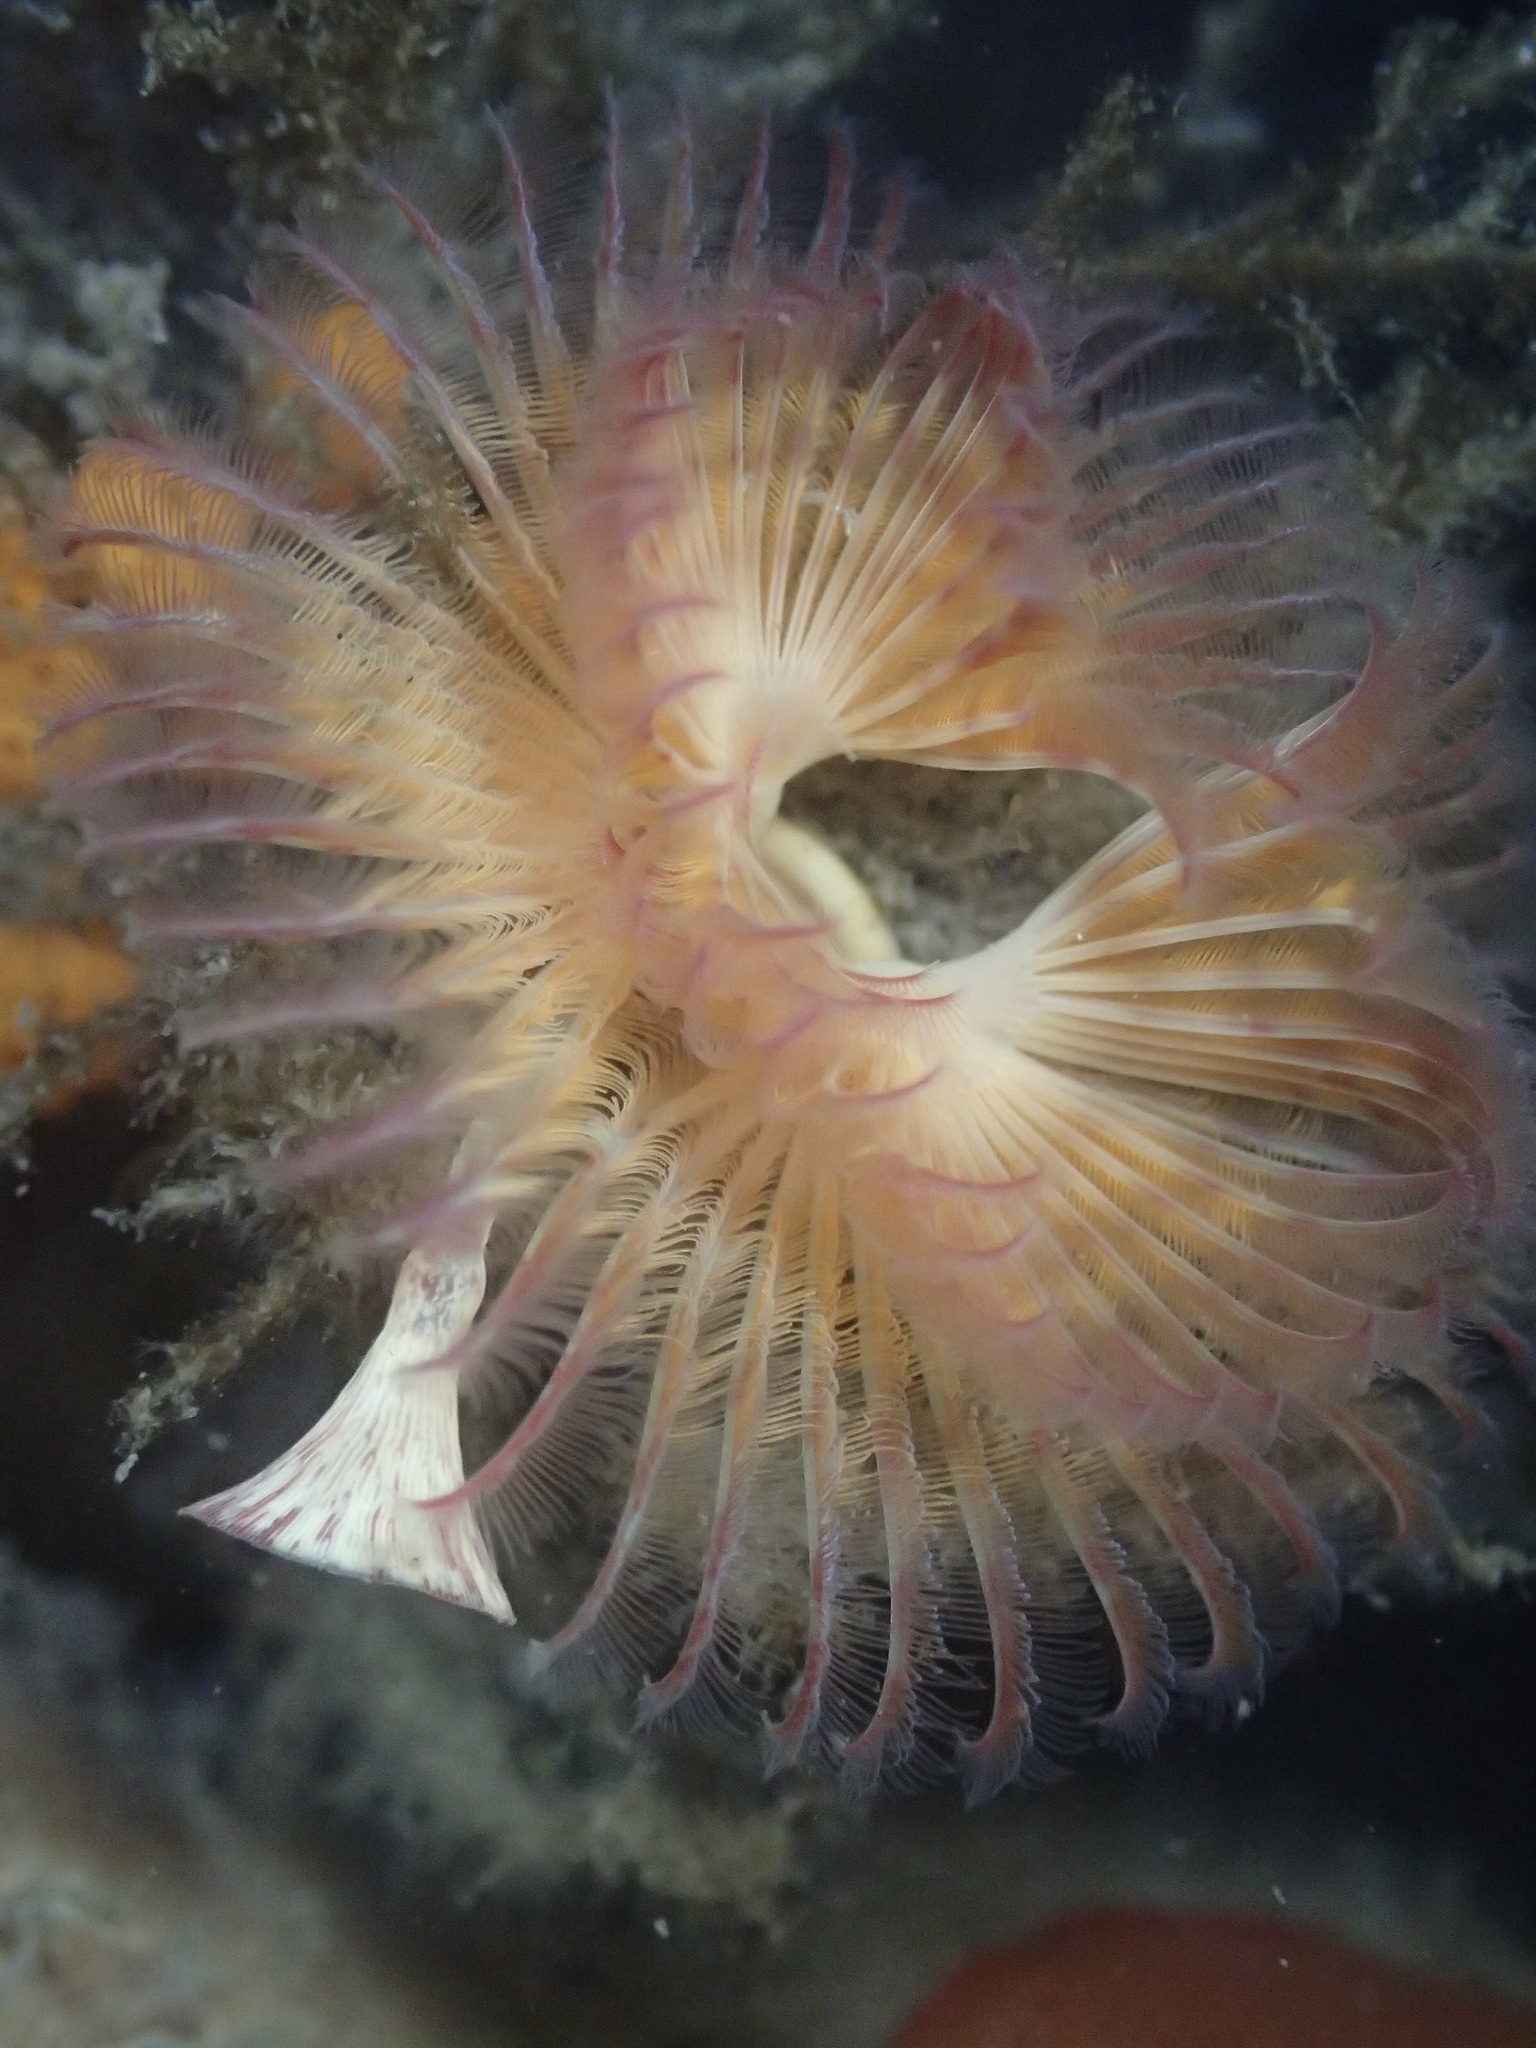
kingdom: Animalia
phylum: Annelida
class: Polychaeta
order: Sabellida
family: Serpulidae
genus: Serpula
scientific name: Serpula columbiana
